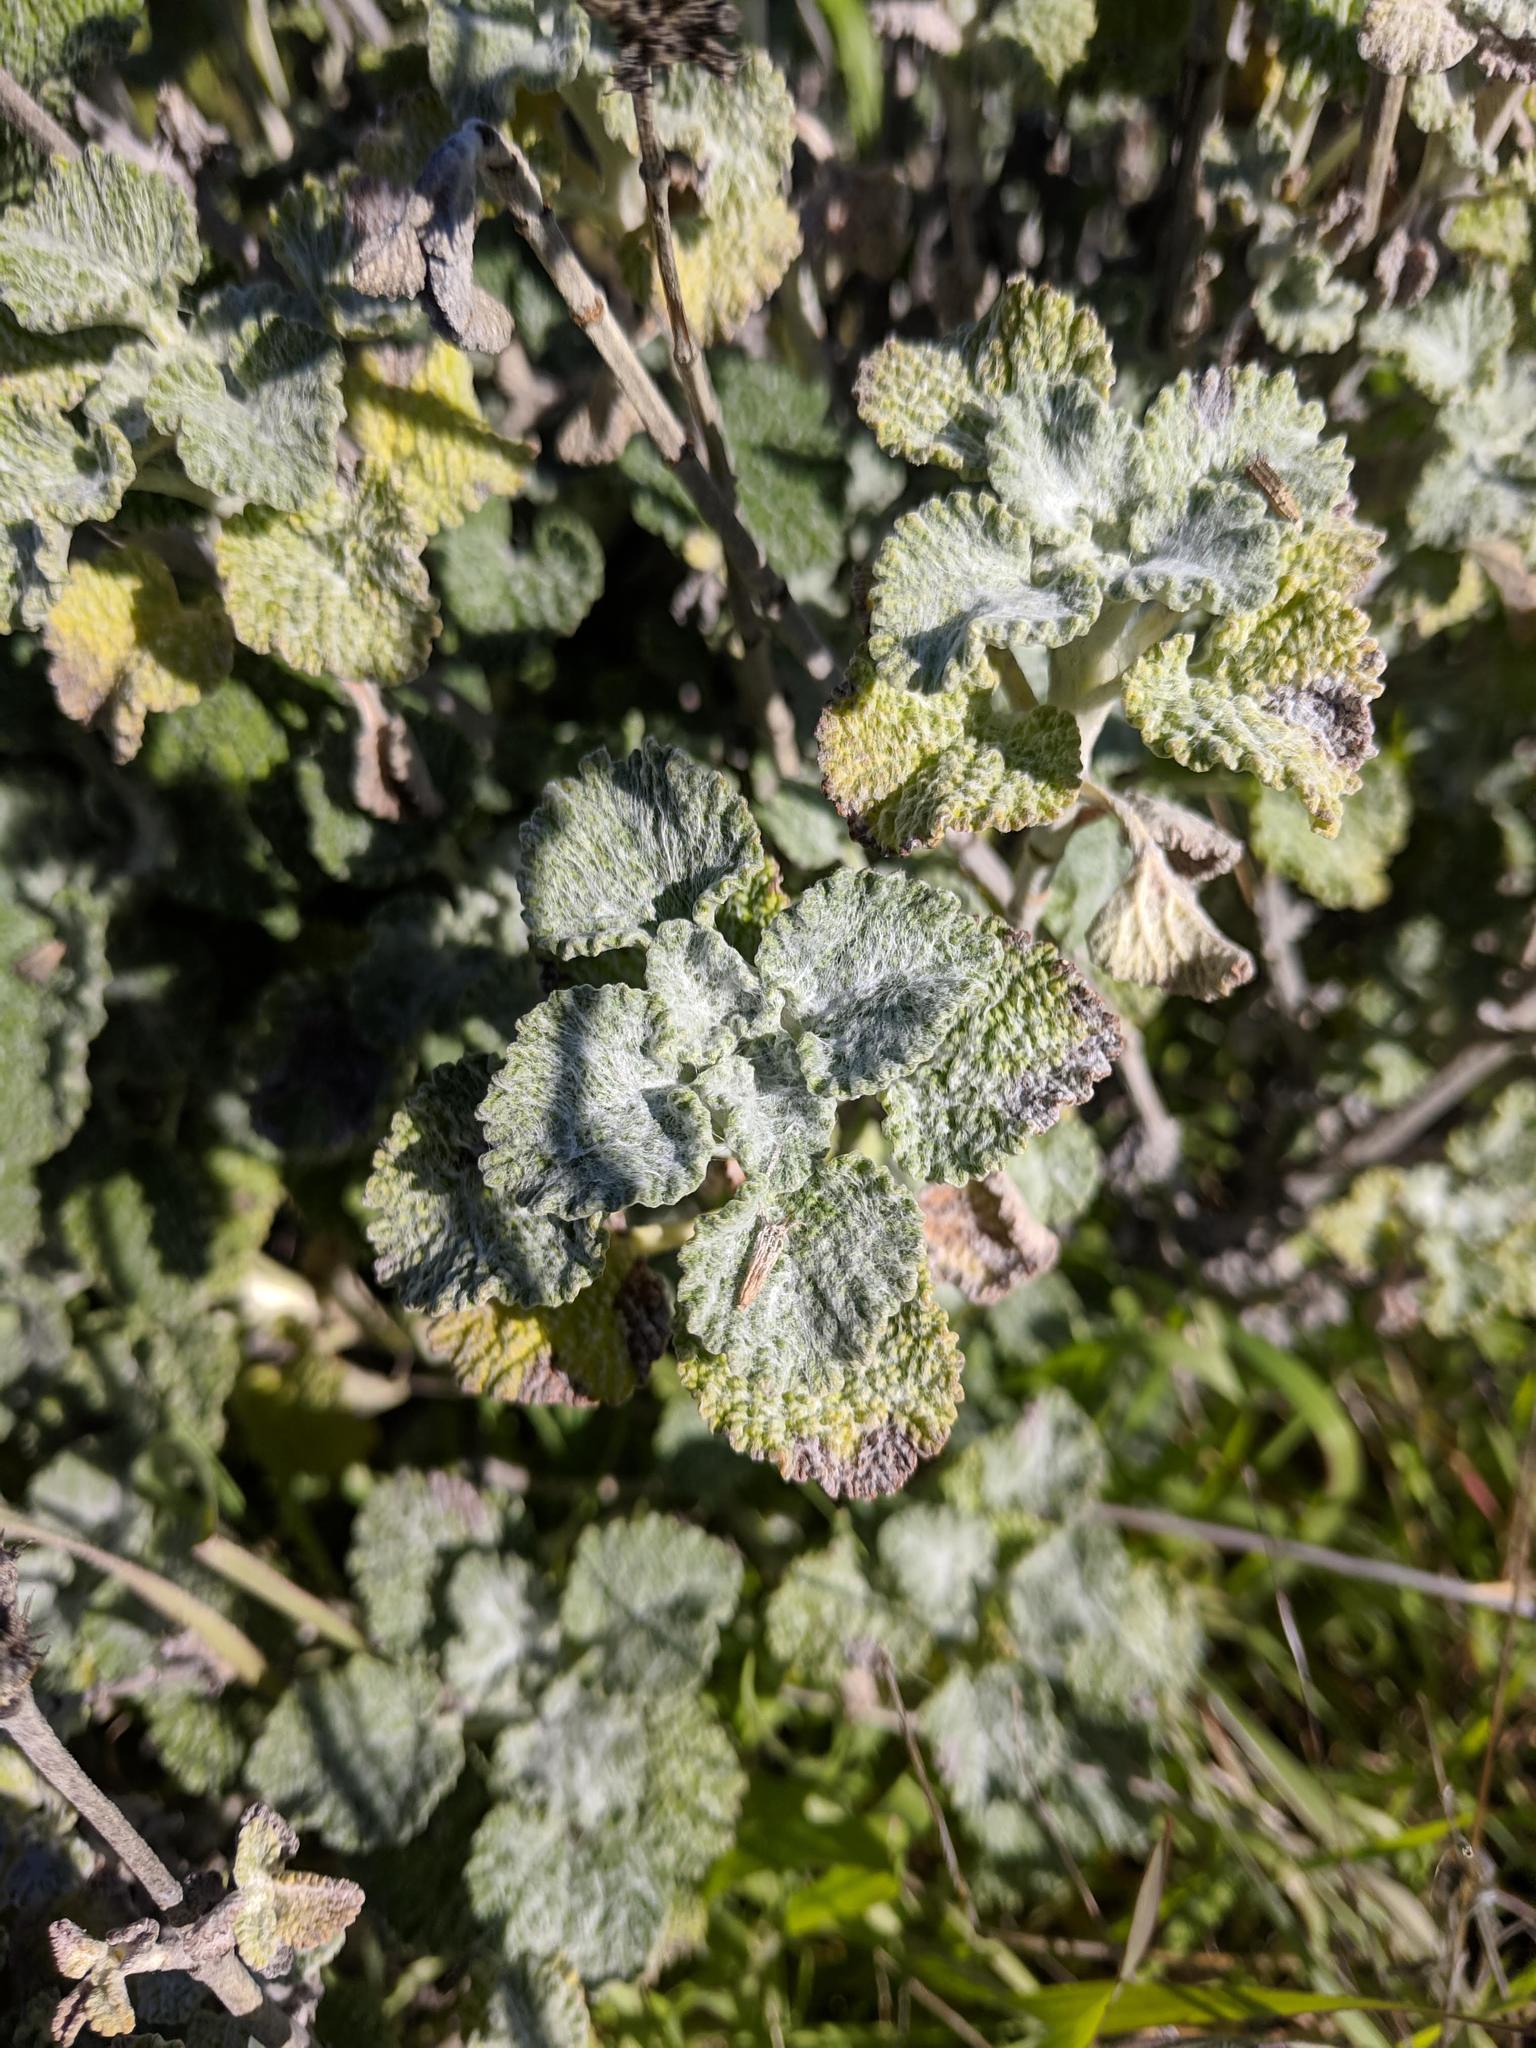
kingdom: Plantae
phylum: Tracheophyta
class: Magnoliopsida
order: Lamiales
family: Lamiaceae
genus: Marrubium
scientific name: Marrubium vulgare
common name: Horehound
